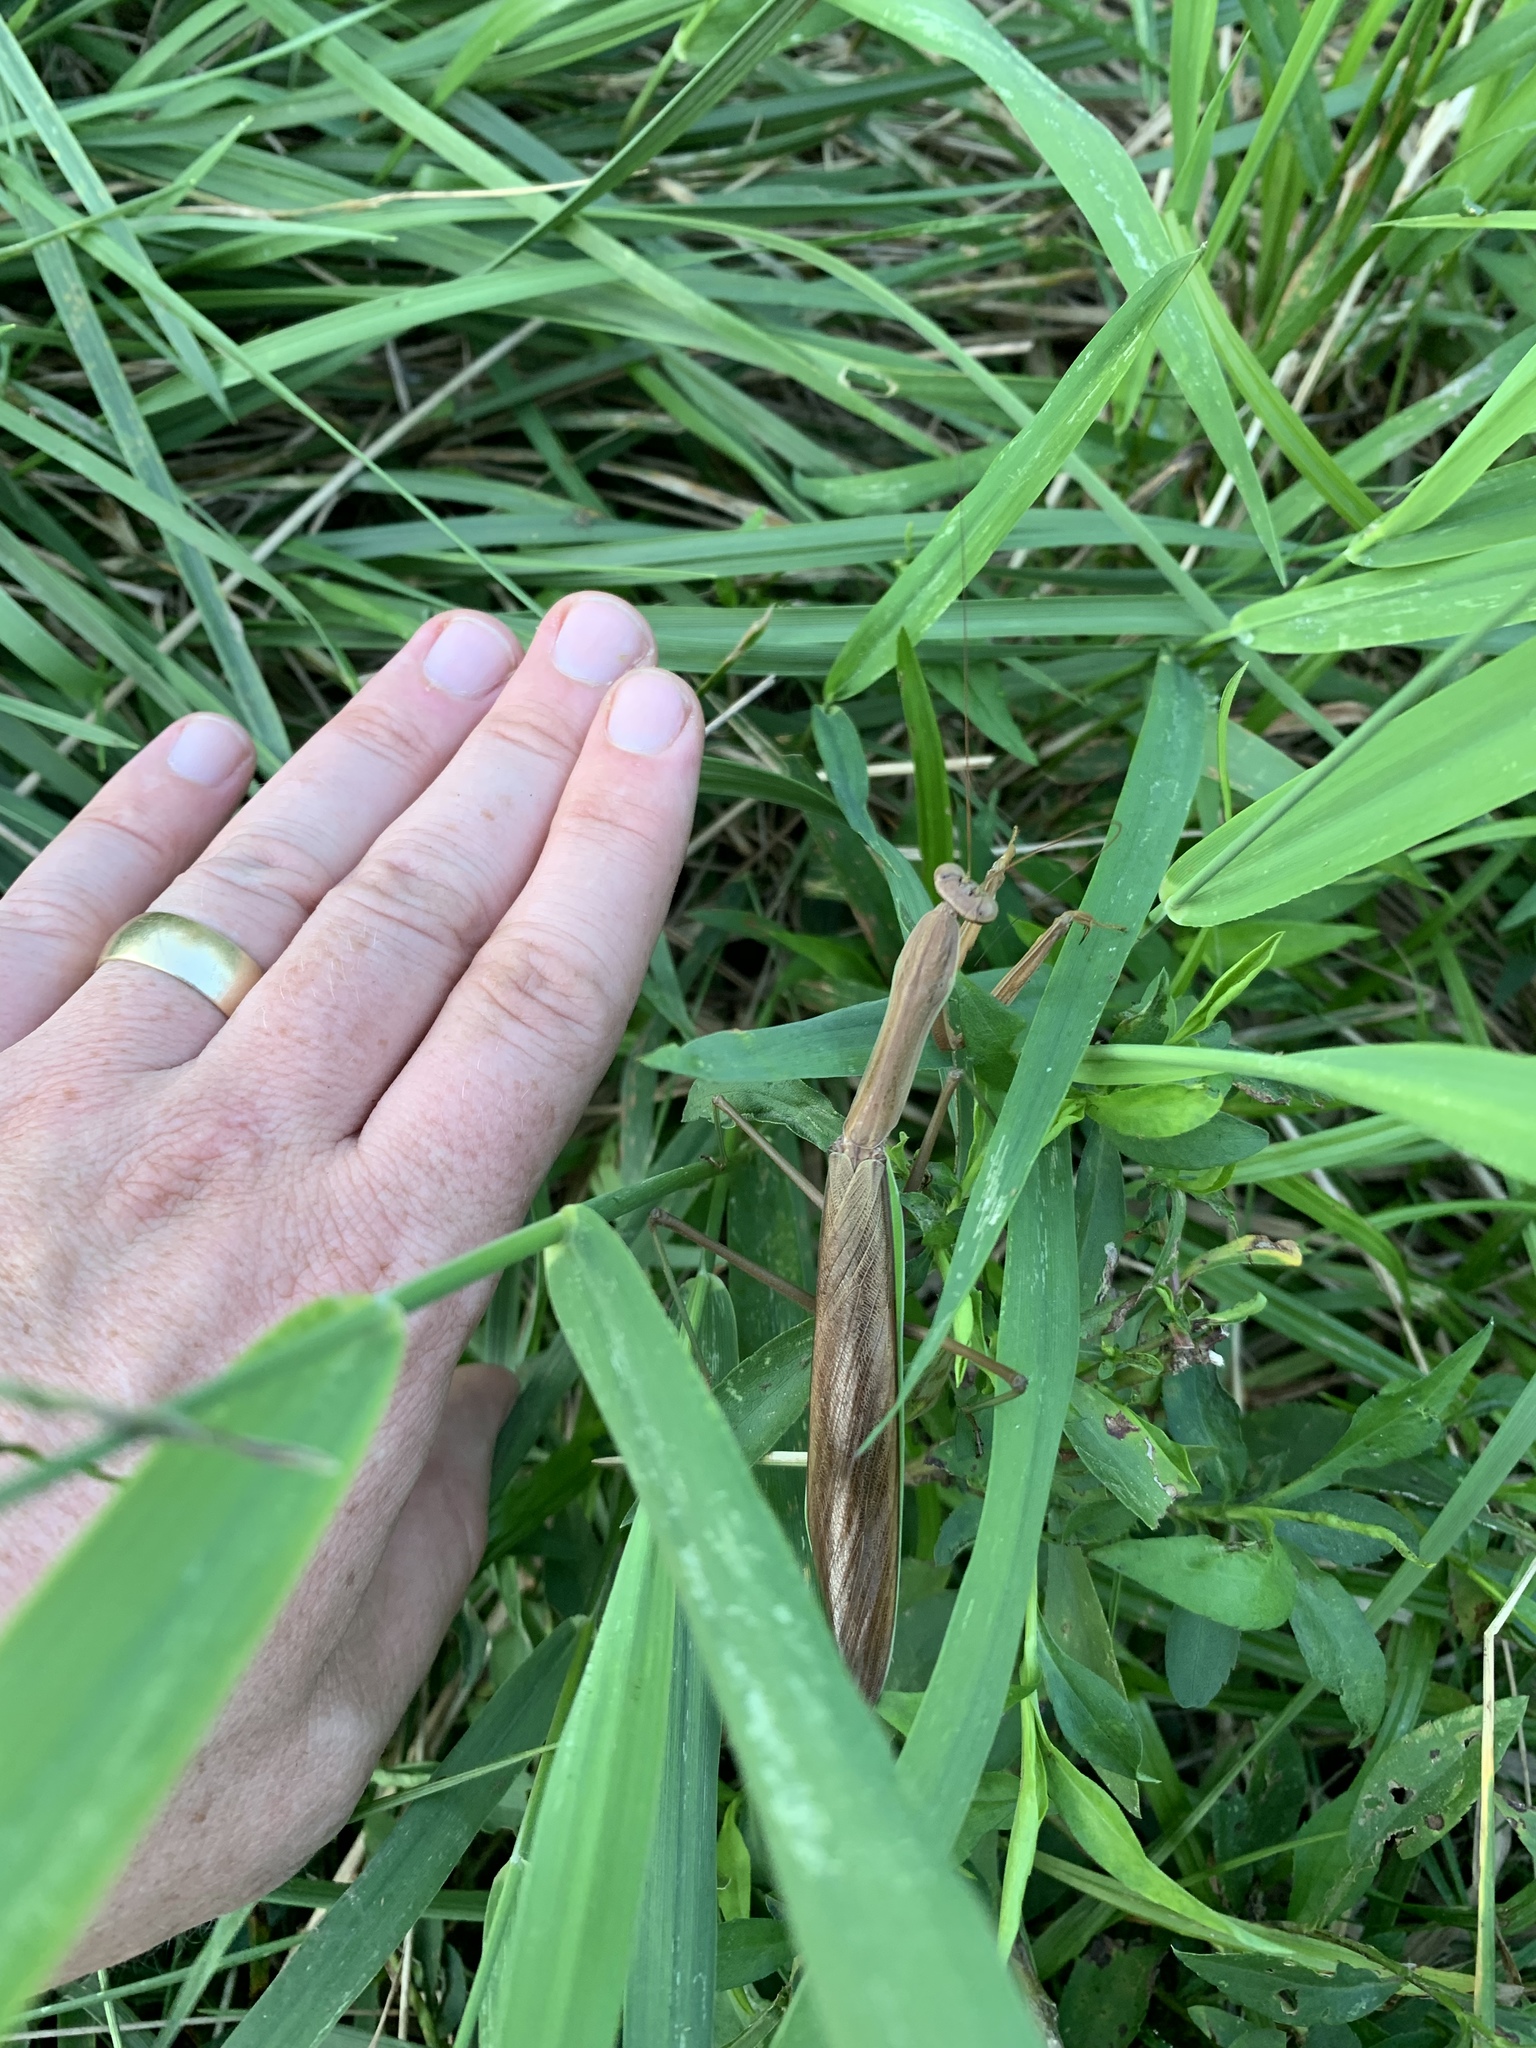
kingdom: Animalia
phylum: Arthropoda
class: Insecta
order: Mantodea
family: Mantidae
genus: Tenodera
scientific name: Tenodera sinensis
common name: Chinese mantis
